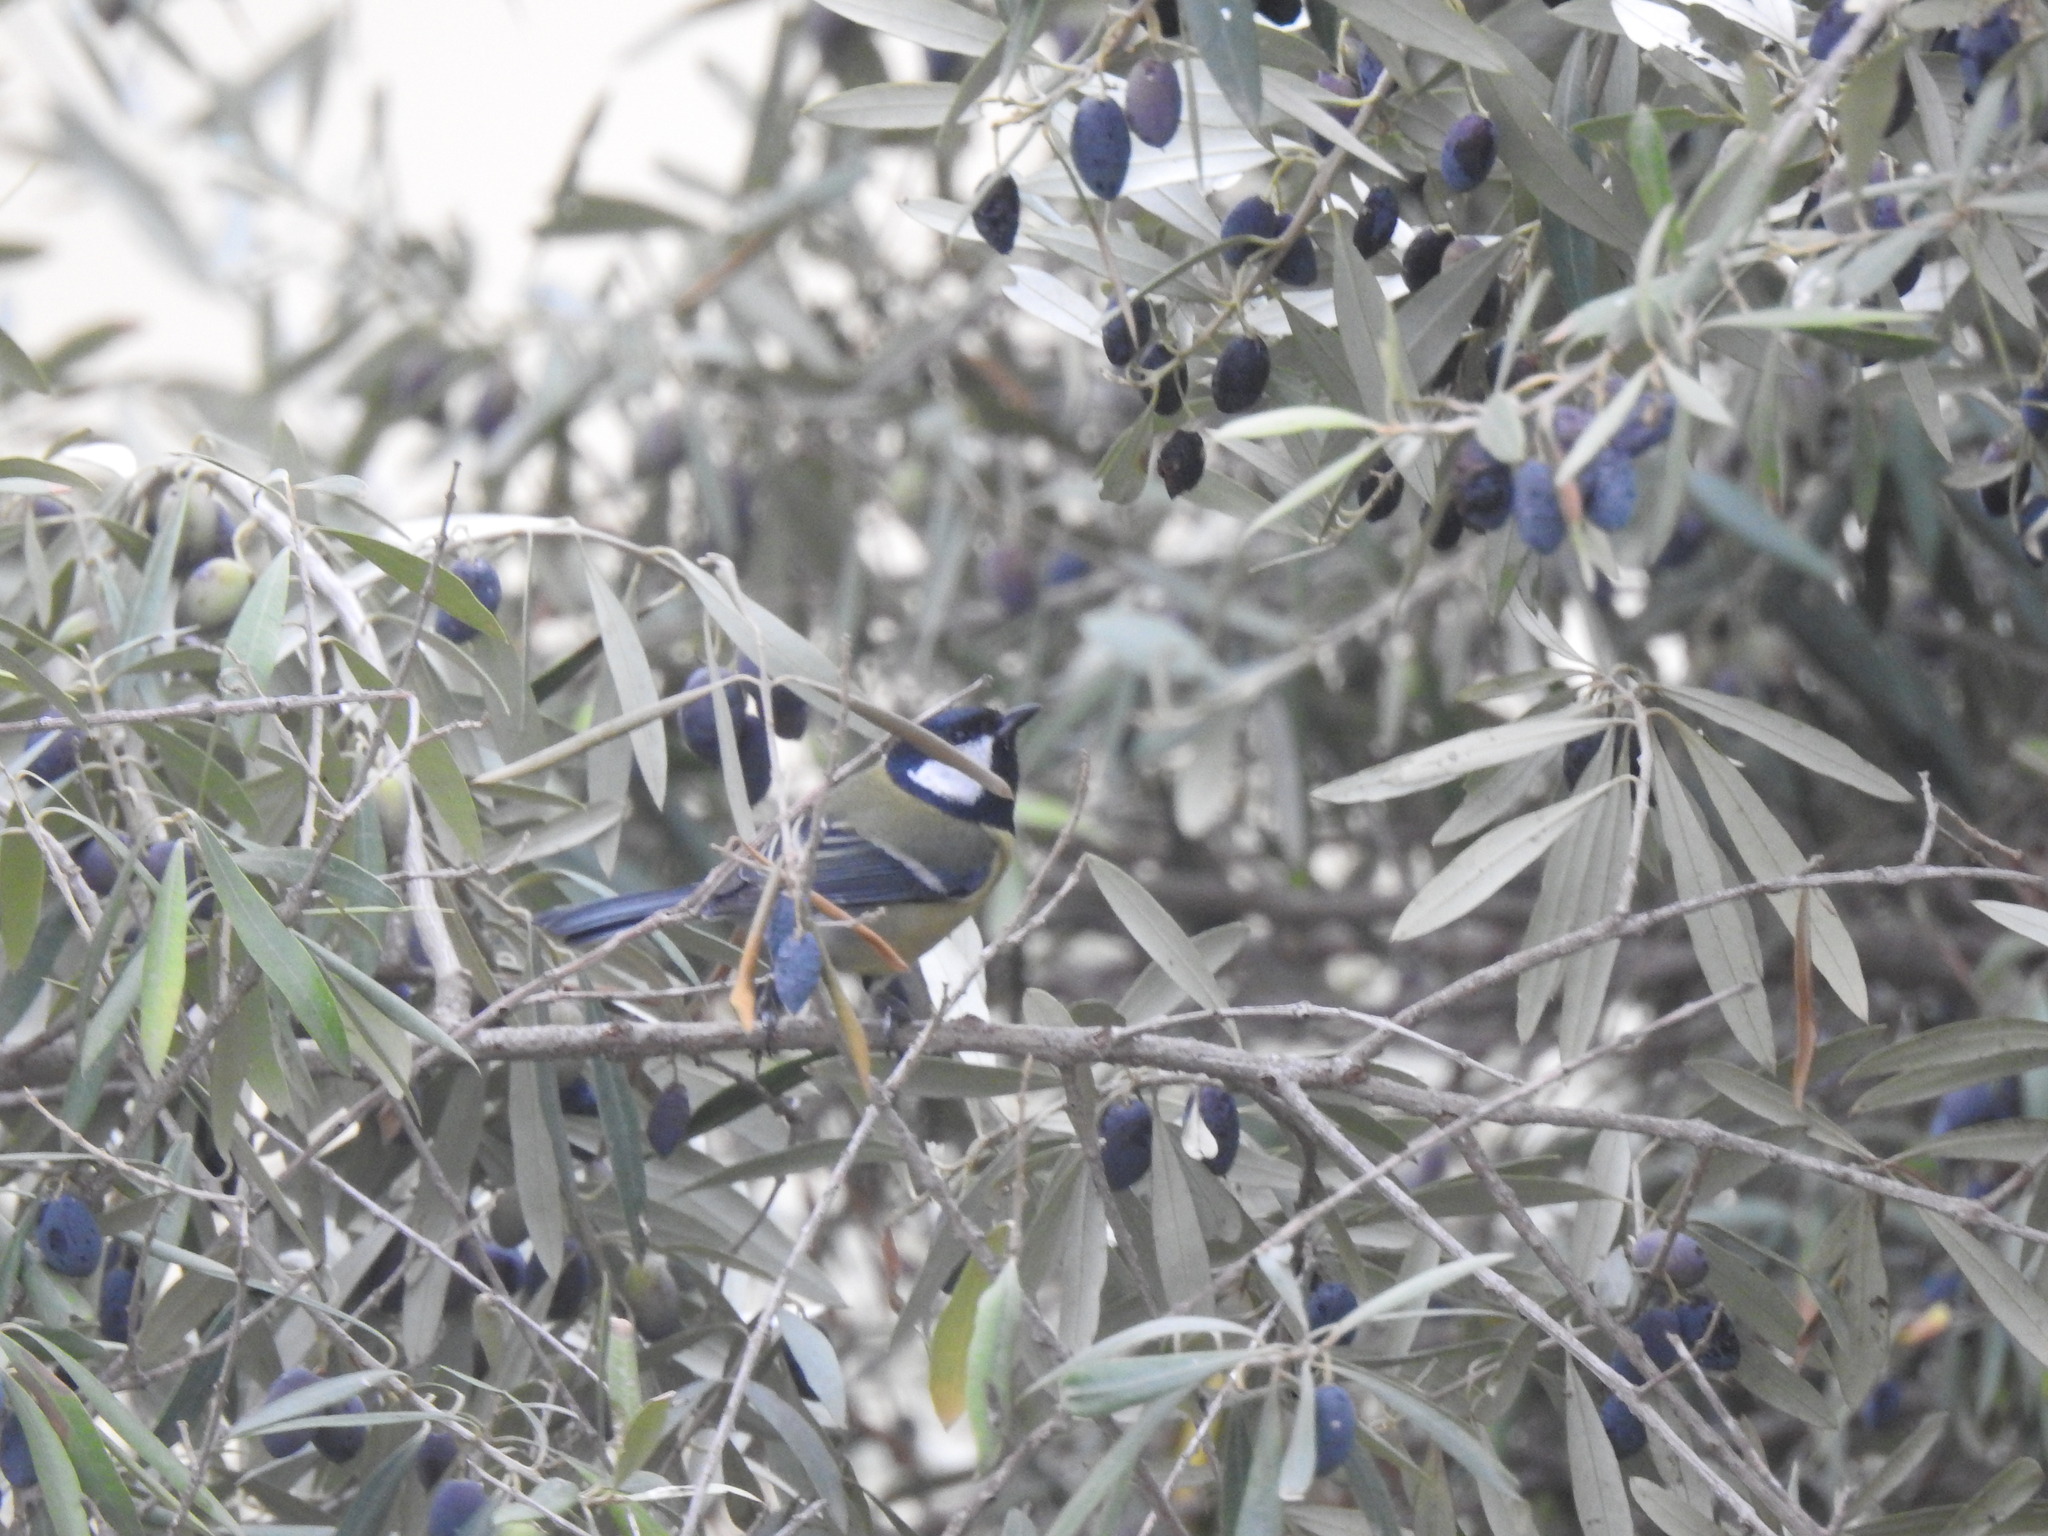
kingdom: Animalia
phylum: Chordata
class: Aves
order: Passeriformes
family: Paridae
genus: Parus
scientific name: Parus major
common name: Great tit
